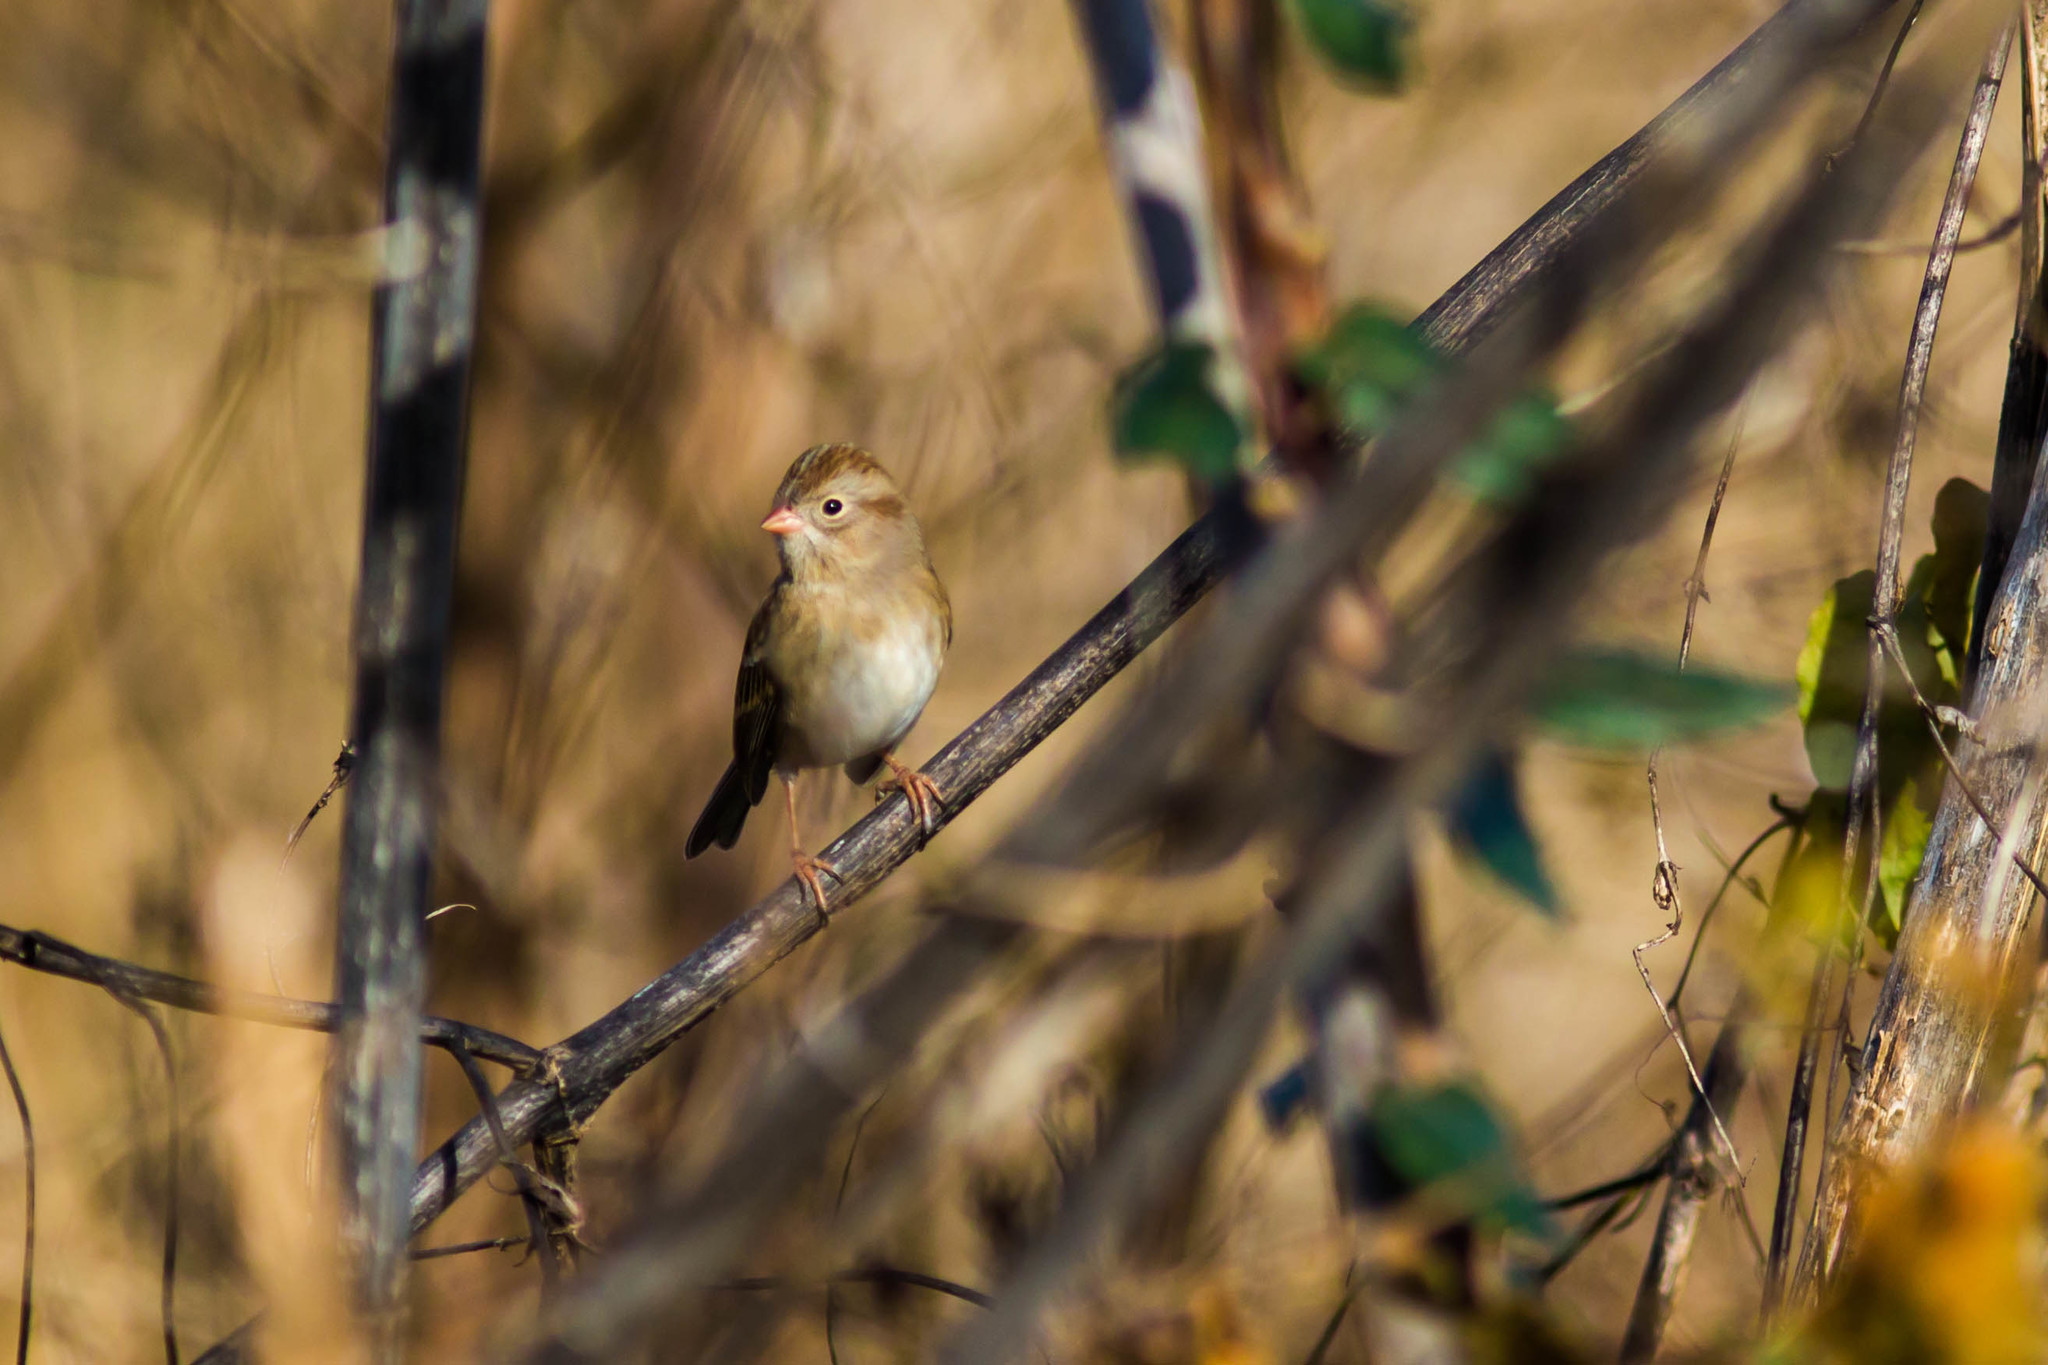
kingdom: Animalia
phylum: Chordata
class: Aves
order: Passeriformes
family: Passerellidae
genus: Spizella
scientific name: Spizella pusilla
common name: Field sparrow
